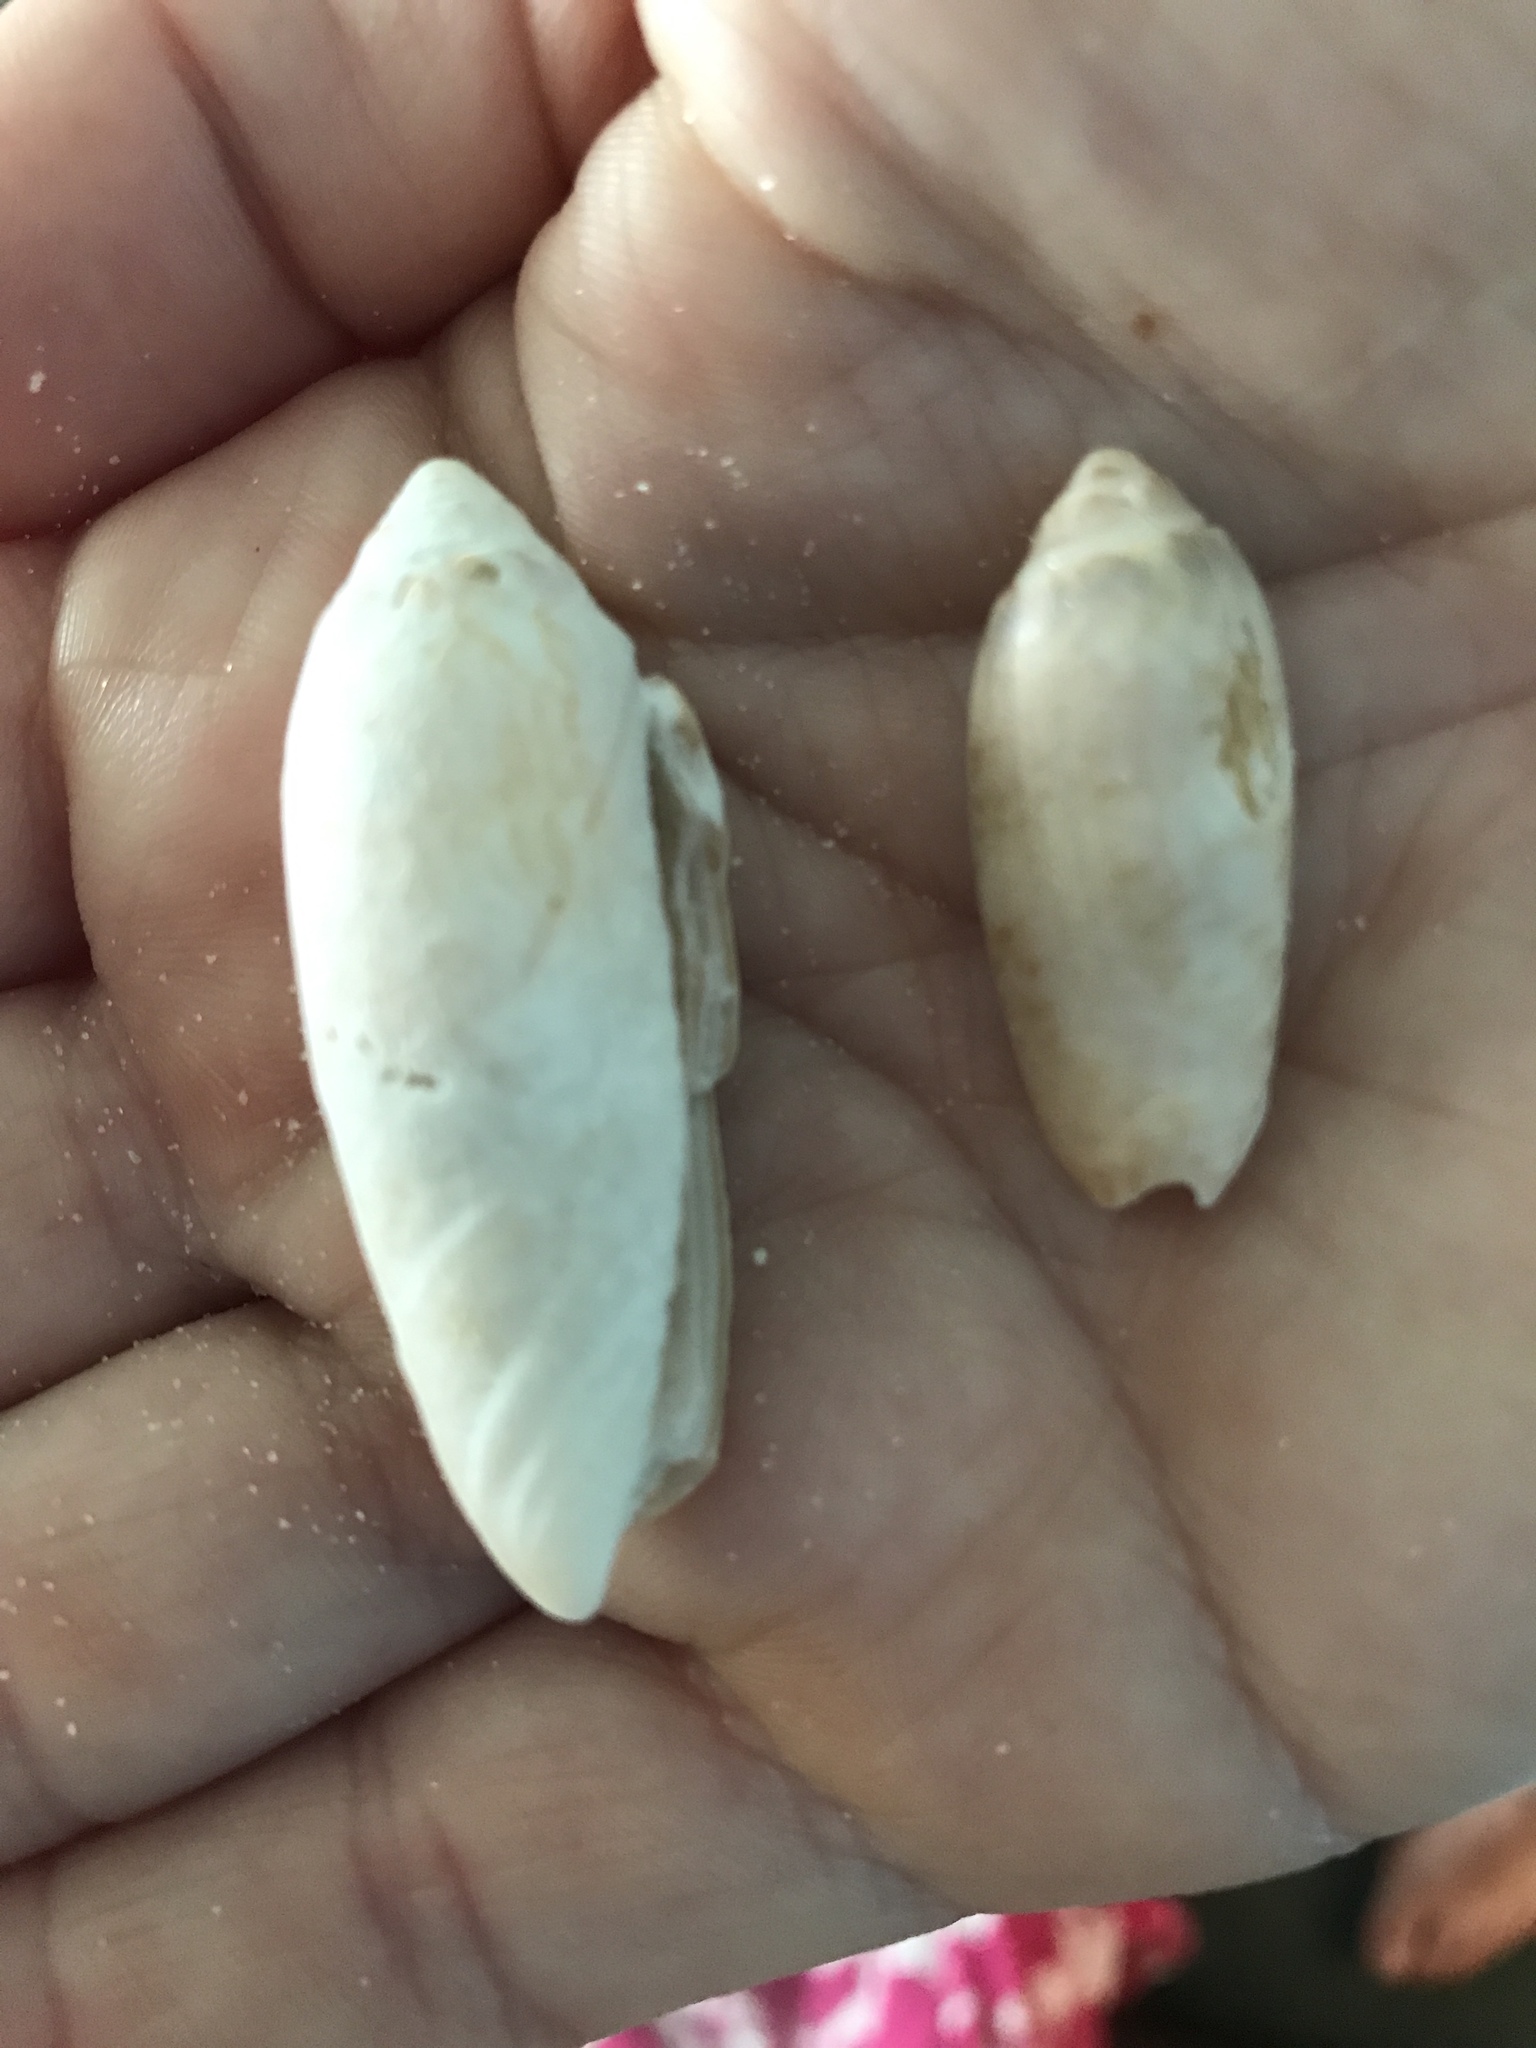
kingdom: Animalia
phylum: Mollusca
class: Gastropoda
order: Neogastropoda
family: Olividae
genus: Oliva
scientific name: Oliva sayana
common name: Lettered olive
